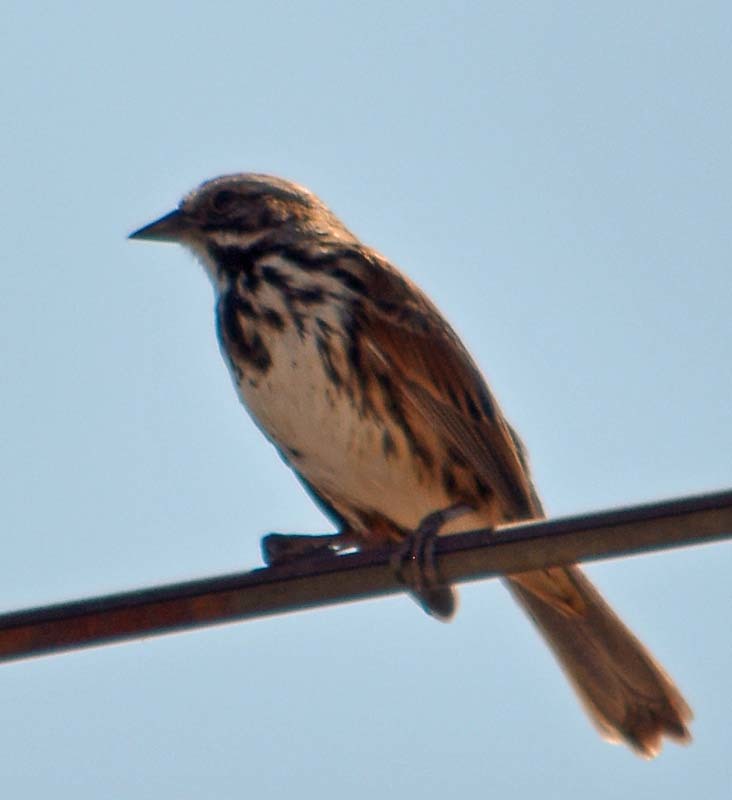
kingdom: Animalia
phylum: Chordata
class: Aves
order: Passeriformes
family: Passerellidae
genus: Melospiza
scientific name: Melospiza melodia
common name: Song sparrow
